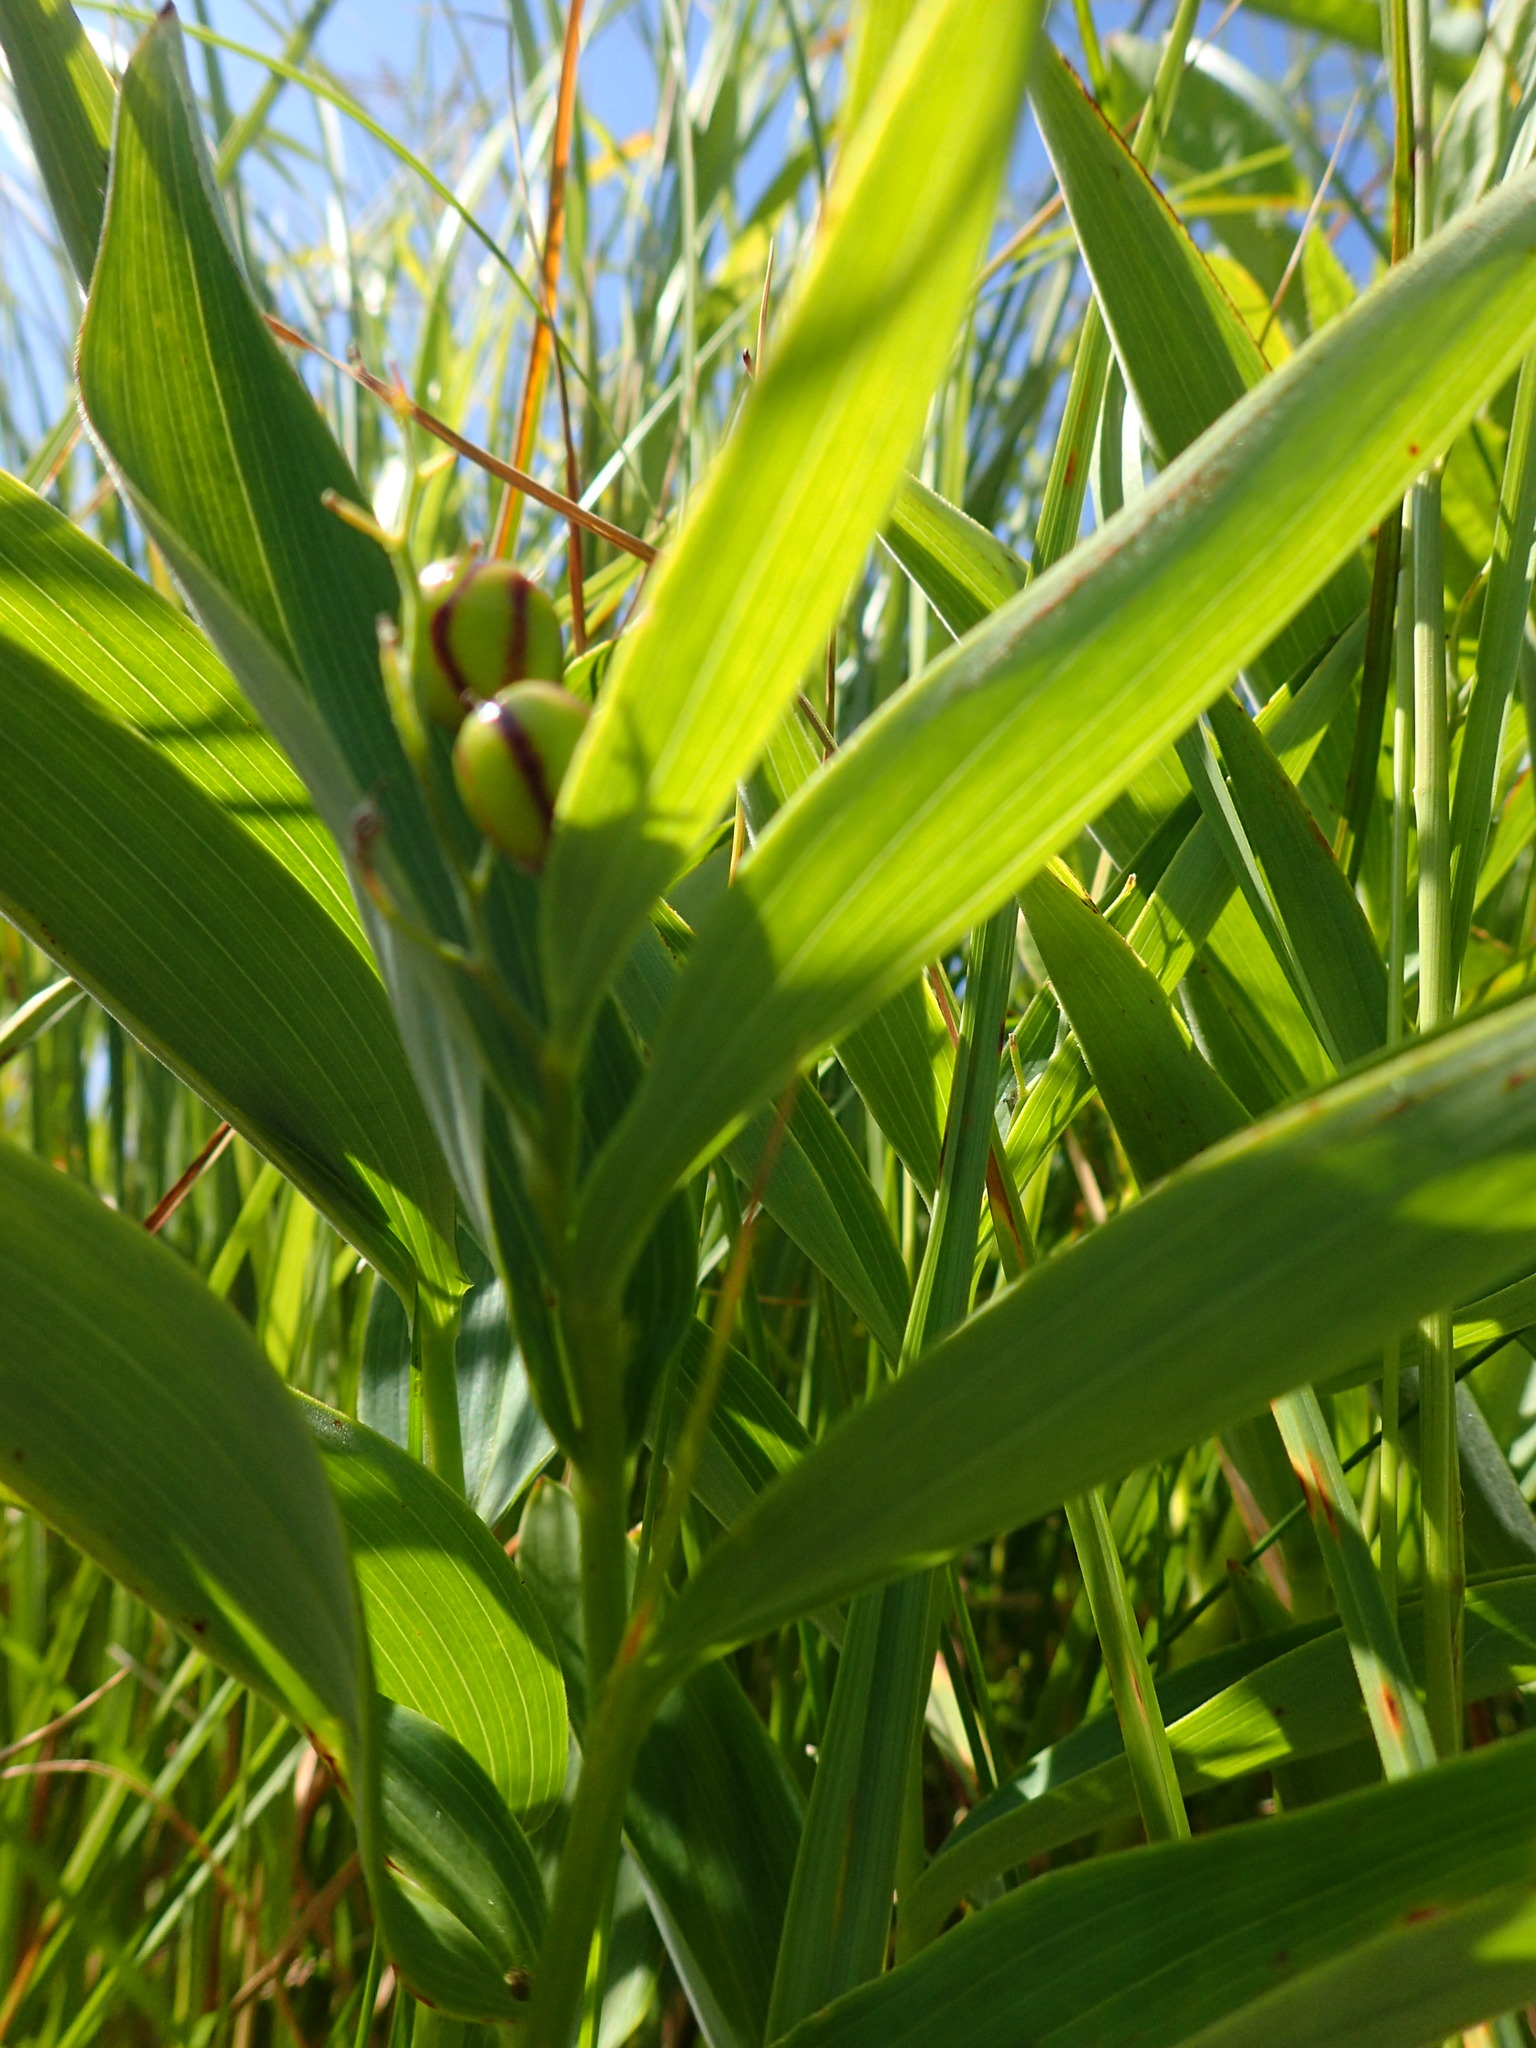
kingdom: Plantae
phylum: Tracheophyta
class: Liliopsida
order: Asparagales
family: Asparagaceae
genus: Maianthemum
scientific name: Maianthemum stellatum
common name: Little false solomon's seal
